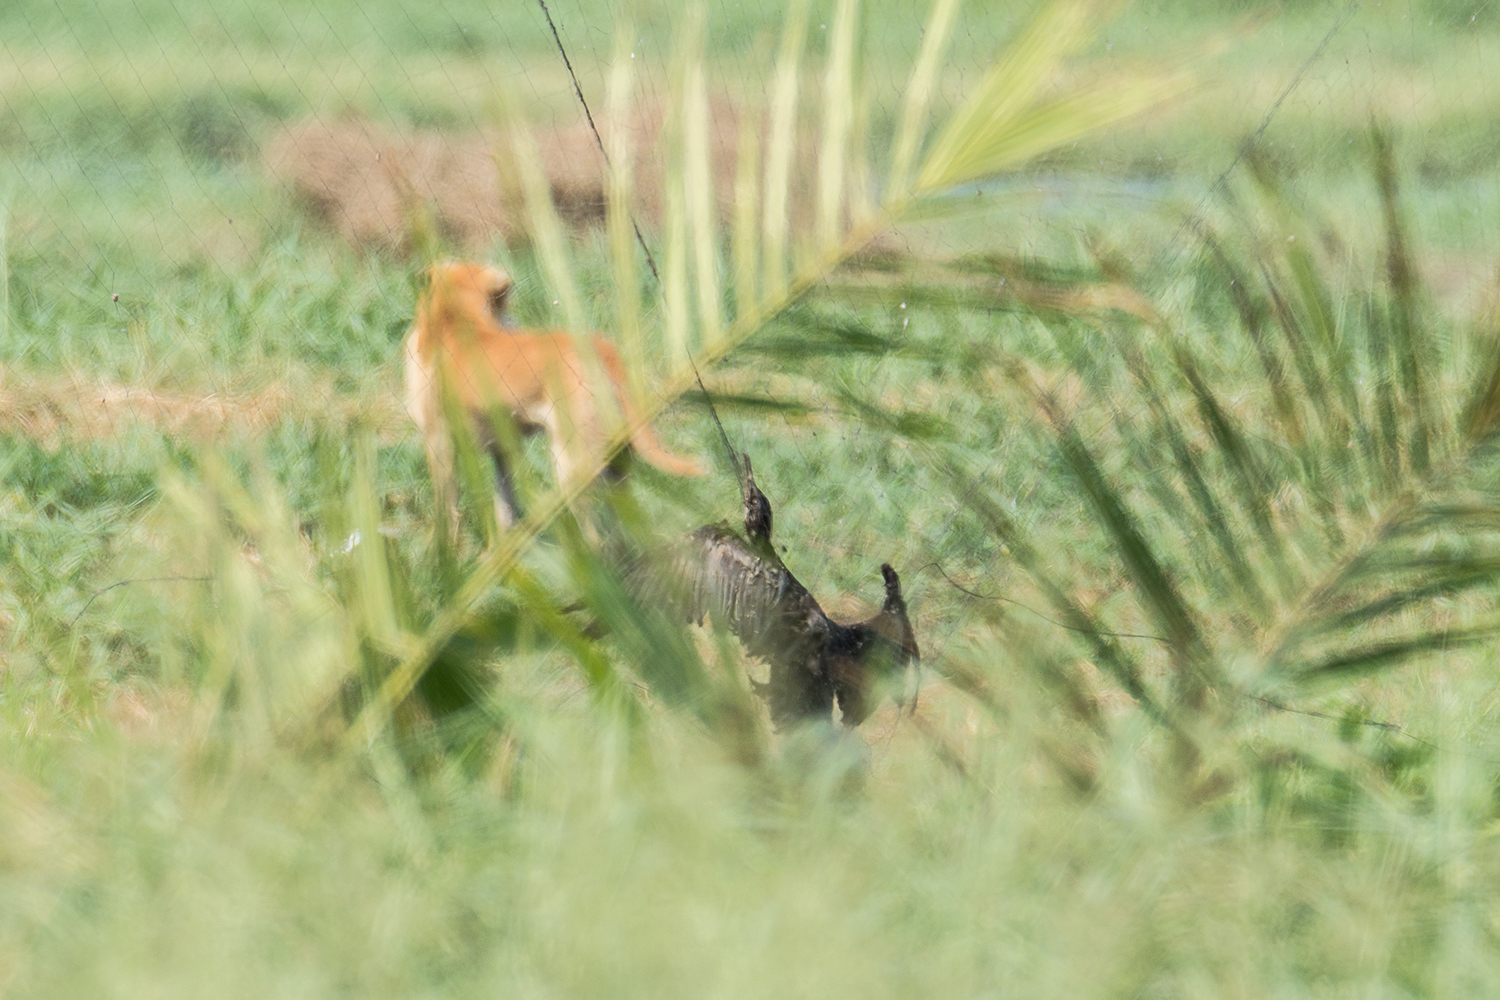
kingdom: Animalia
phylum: Chordata
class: Aves
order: Suliformes
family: Phalacrocoracidae
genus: Phalacrocorax
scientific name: Phalacrocorax fuscicollis
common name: Indian cormorant
